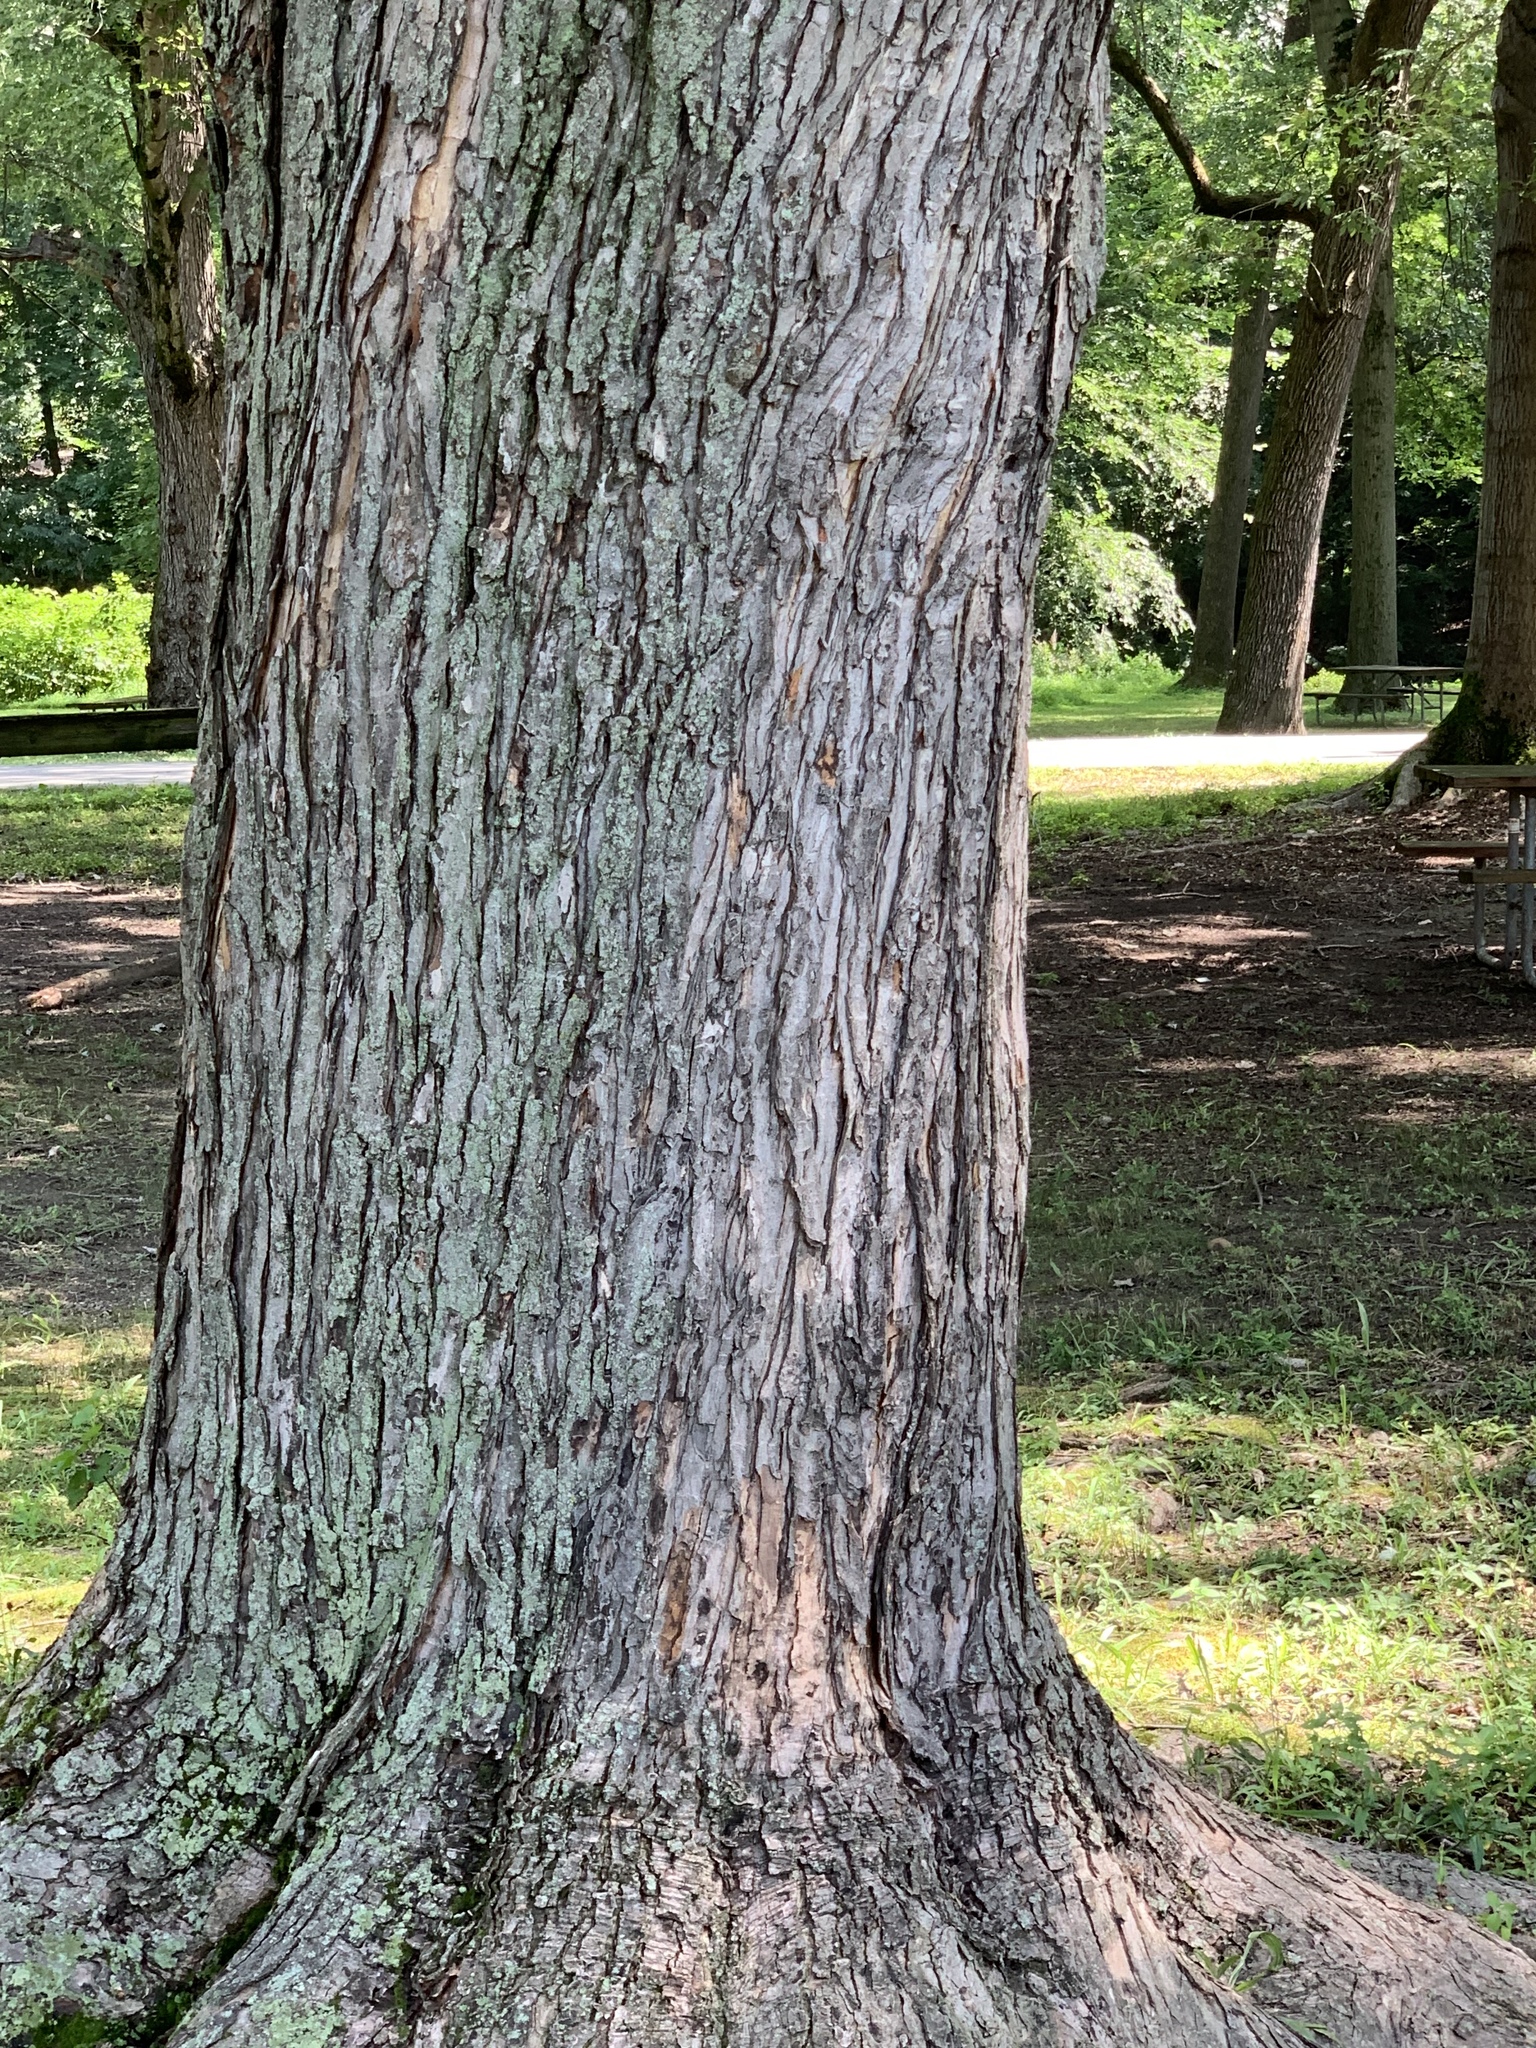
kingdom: Plantae
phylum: Tracheophyta
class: Magnoliopsida
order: Sapindales
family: Sapindaceae
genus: Acer
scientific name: Acer saccharinum
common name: Silver maple
